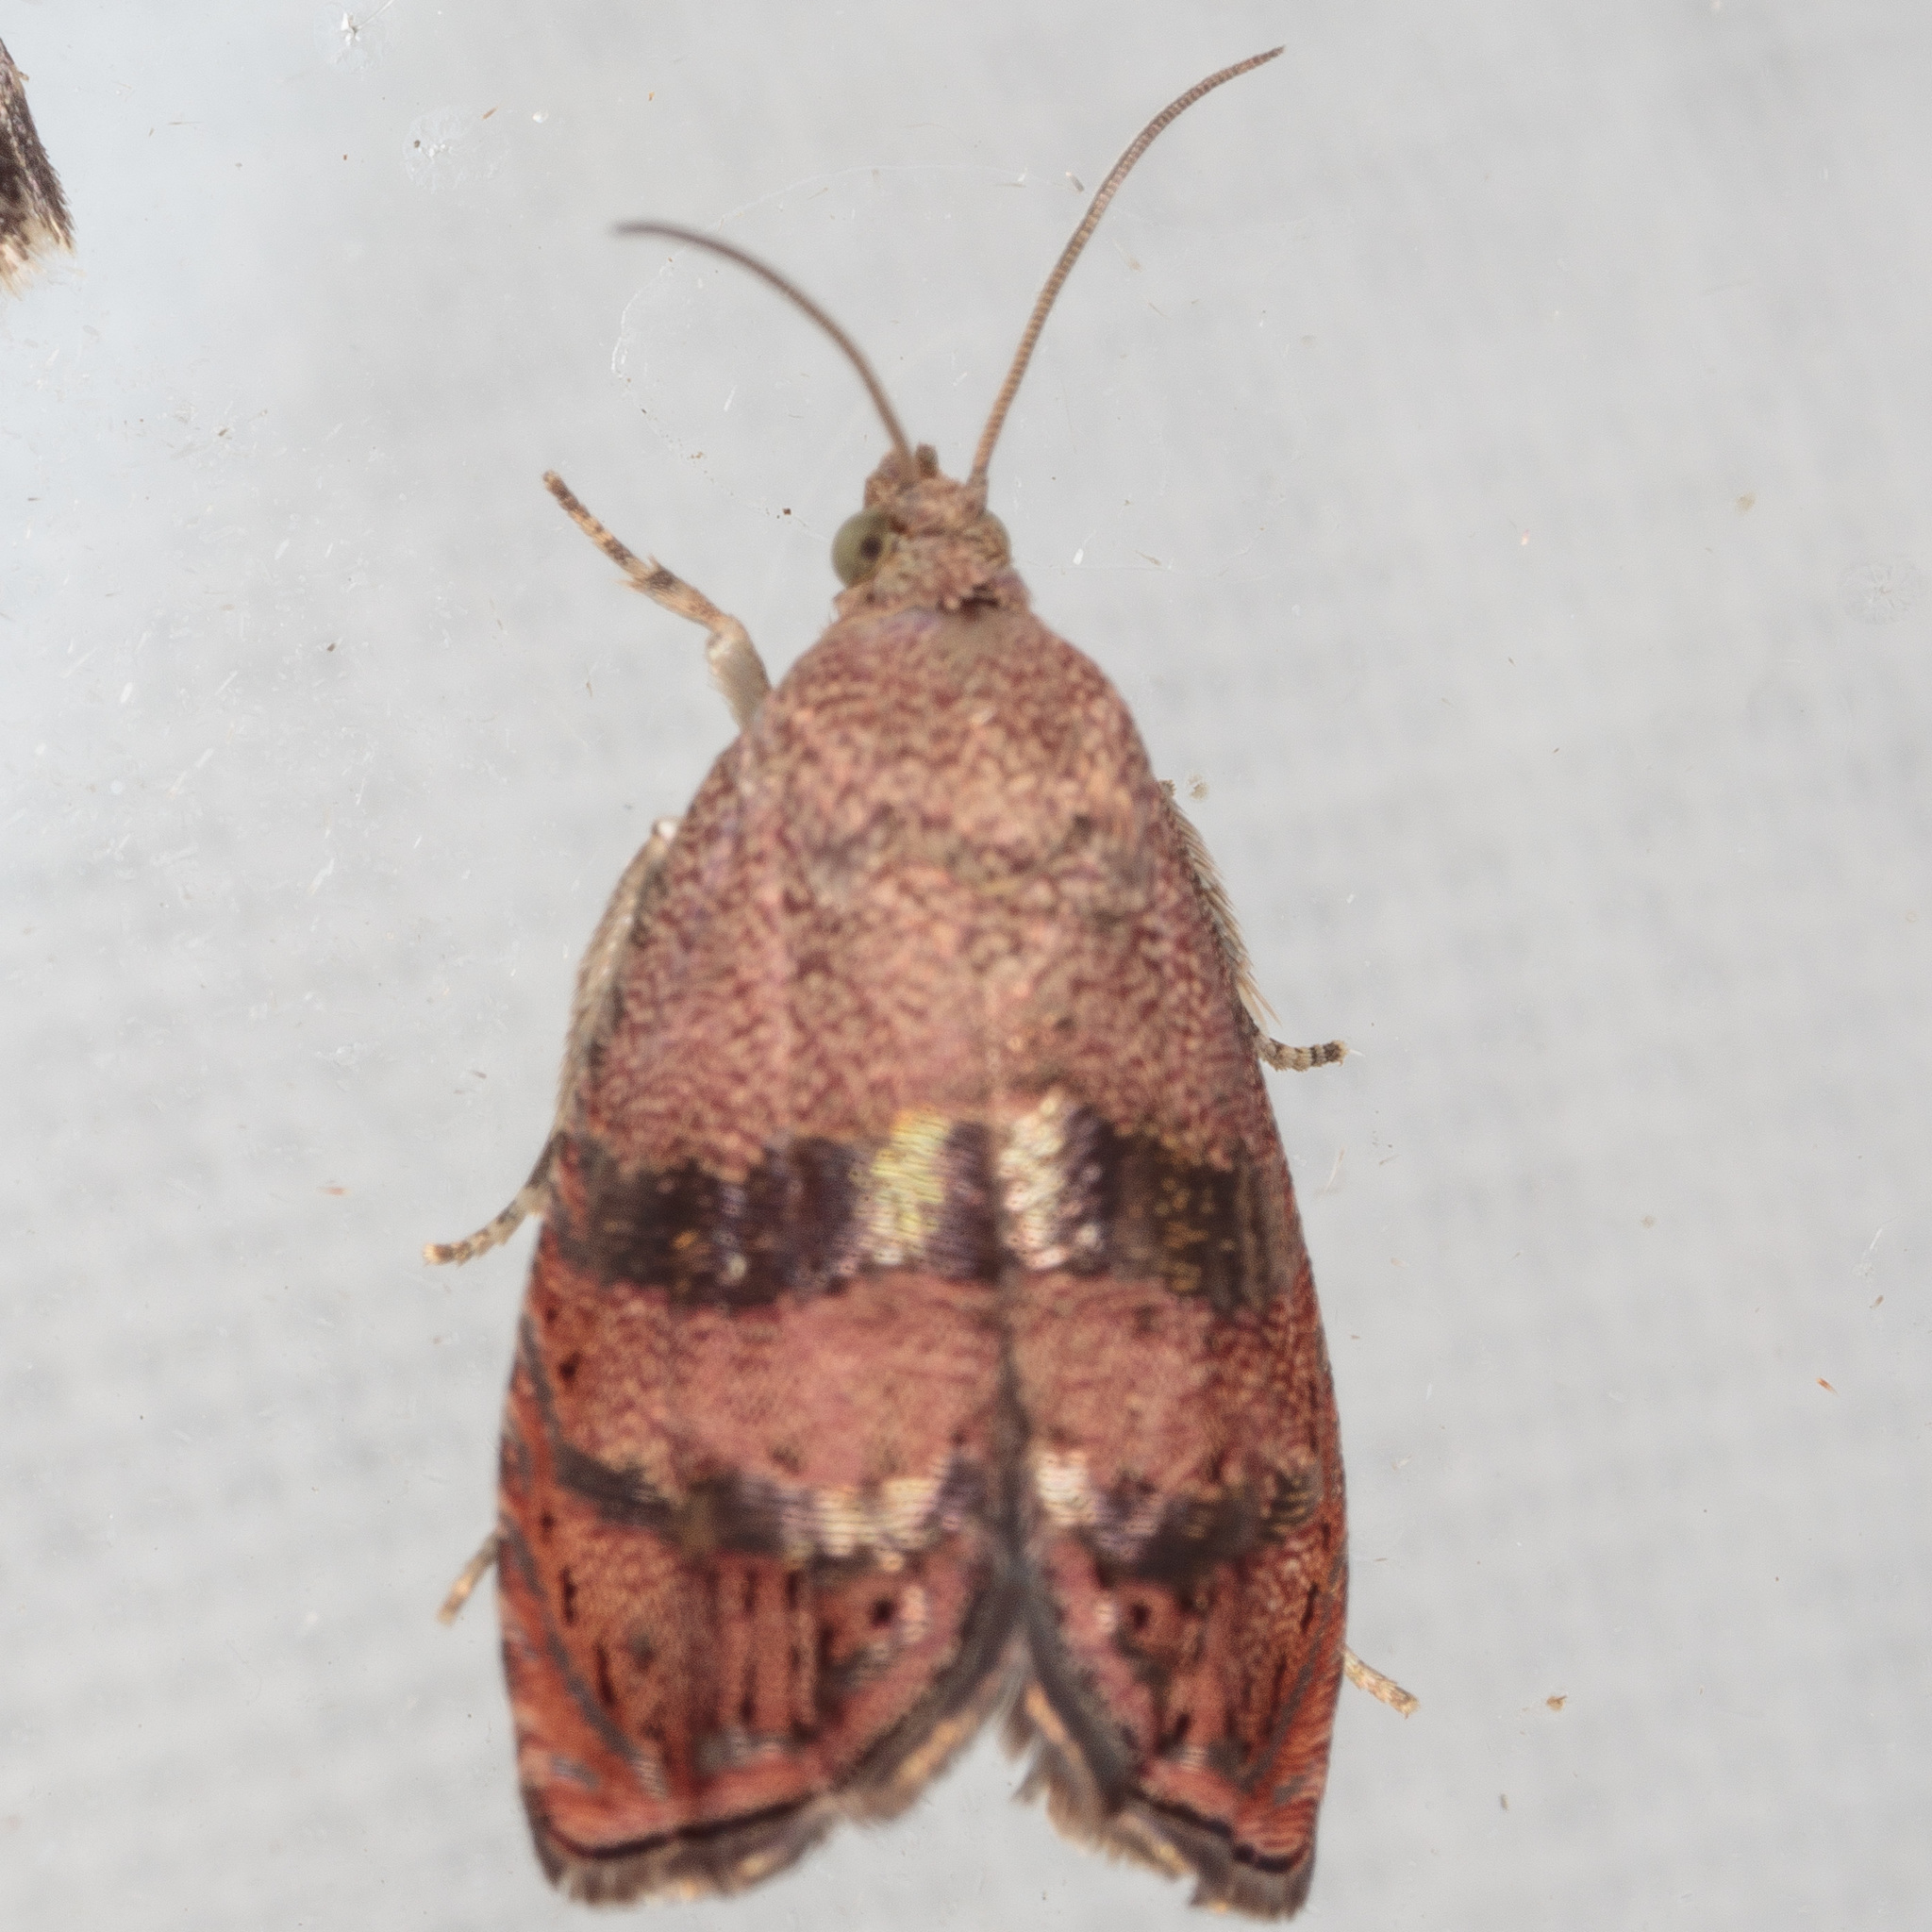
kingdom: Animalia
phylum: Arthropoda
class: Insecta
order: Lepidoptera
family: Tortricidae
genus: Cydia
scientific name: Cydia latiferreana
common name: Filbertworm moth
